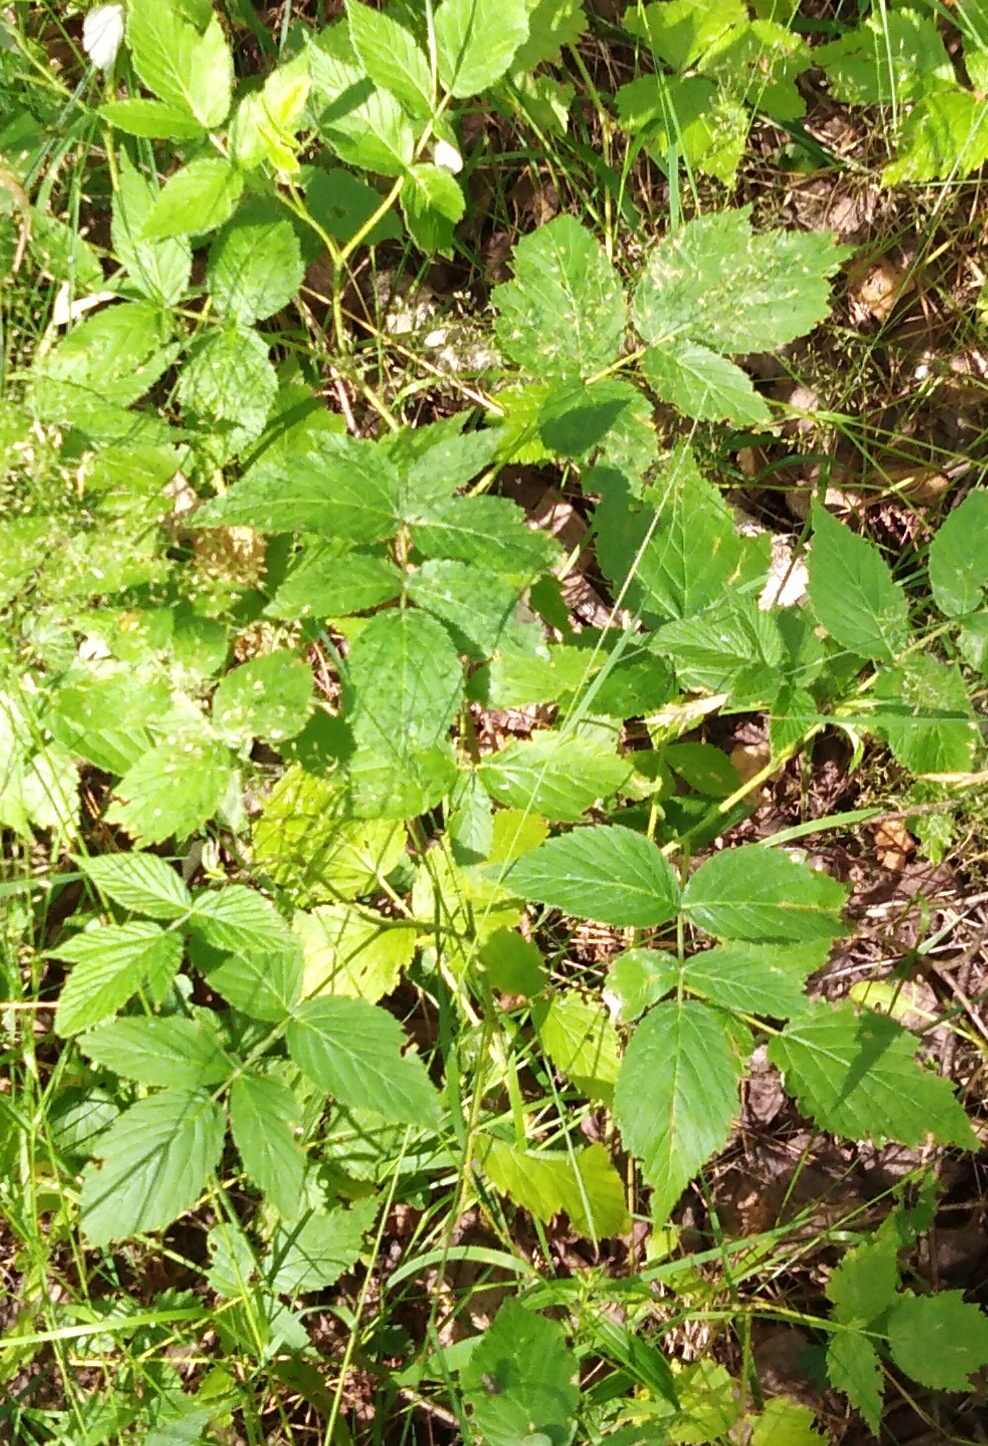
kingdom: Plantae
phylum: Tracheophyta
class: Magnoliopsida
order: Rosales
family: Rosaceae
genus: Rubus
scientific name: Rubus idaeus
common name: Raspberry
